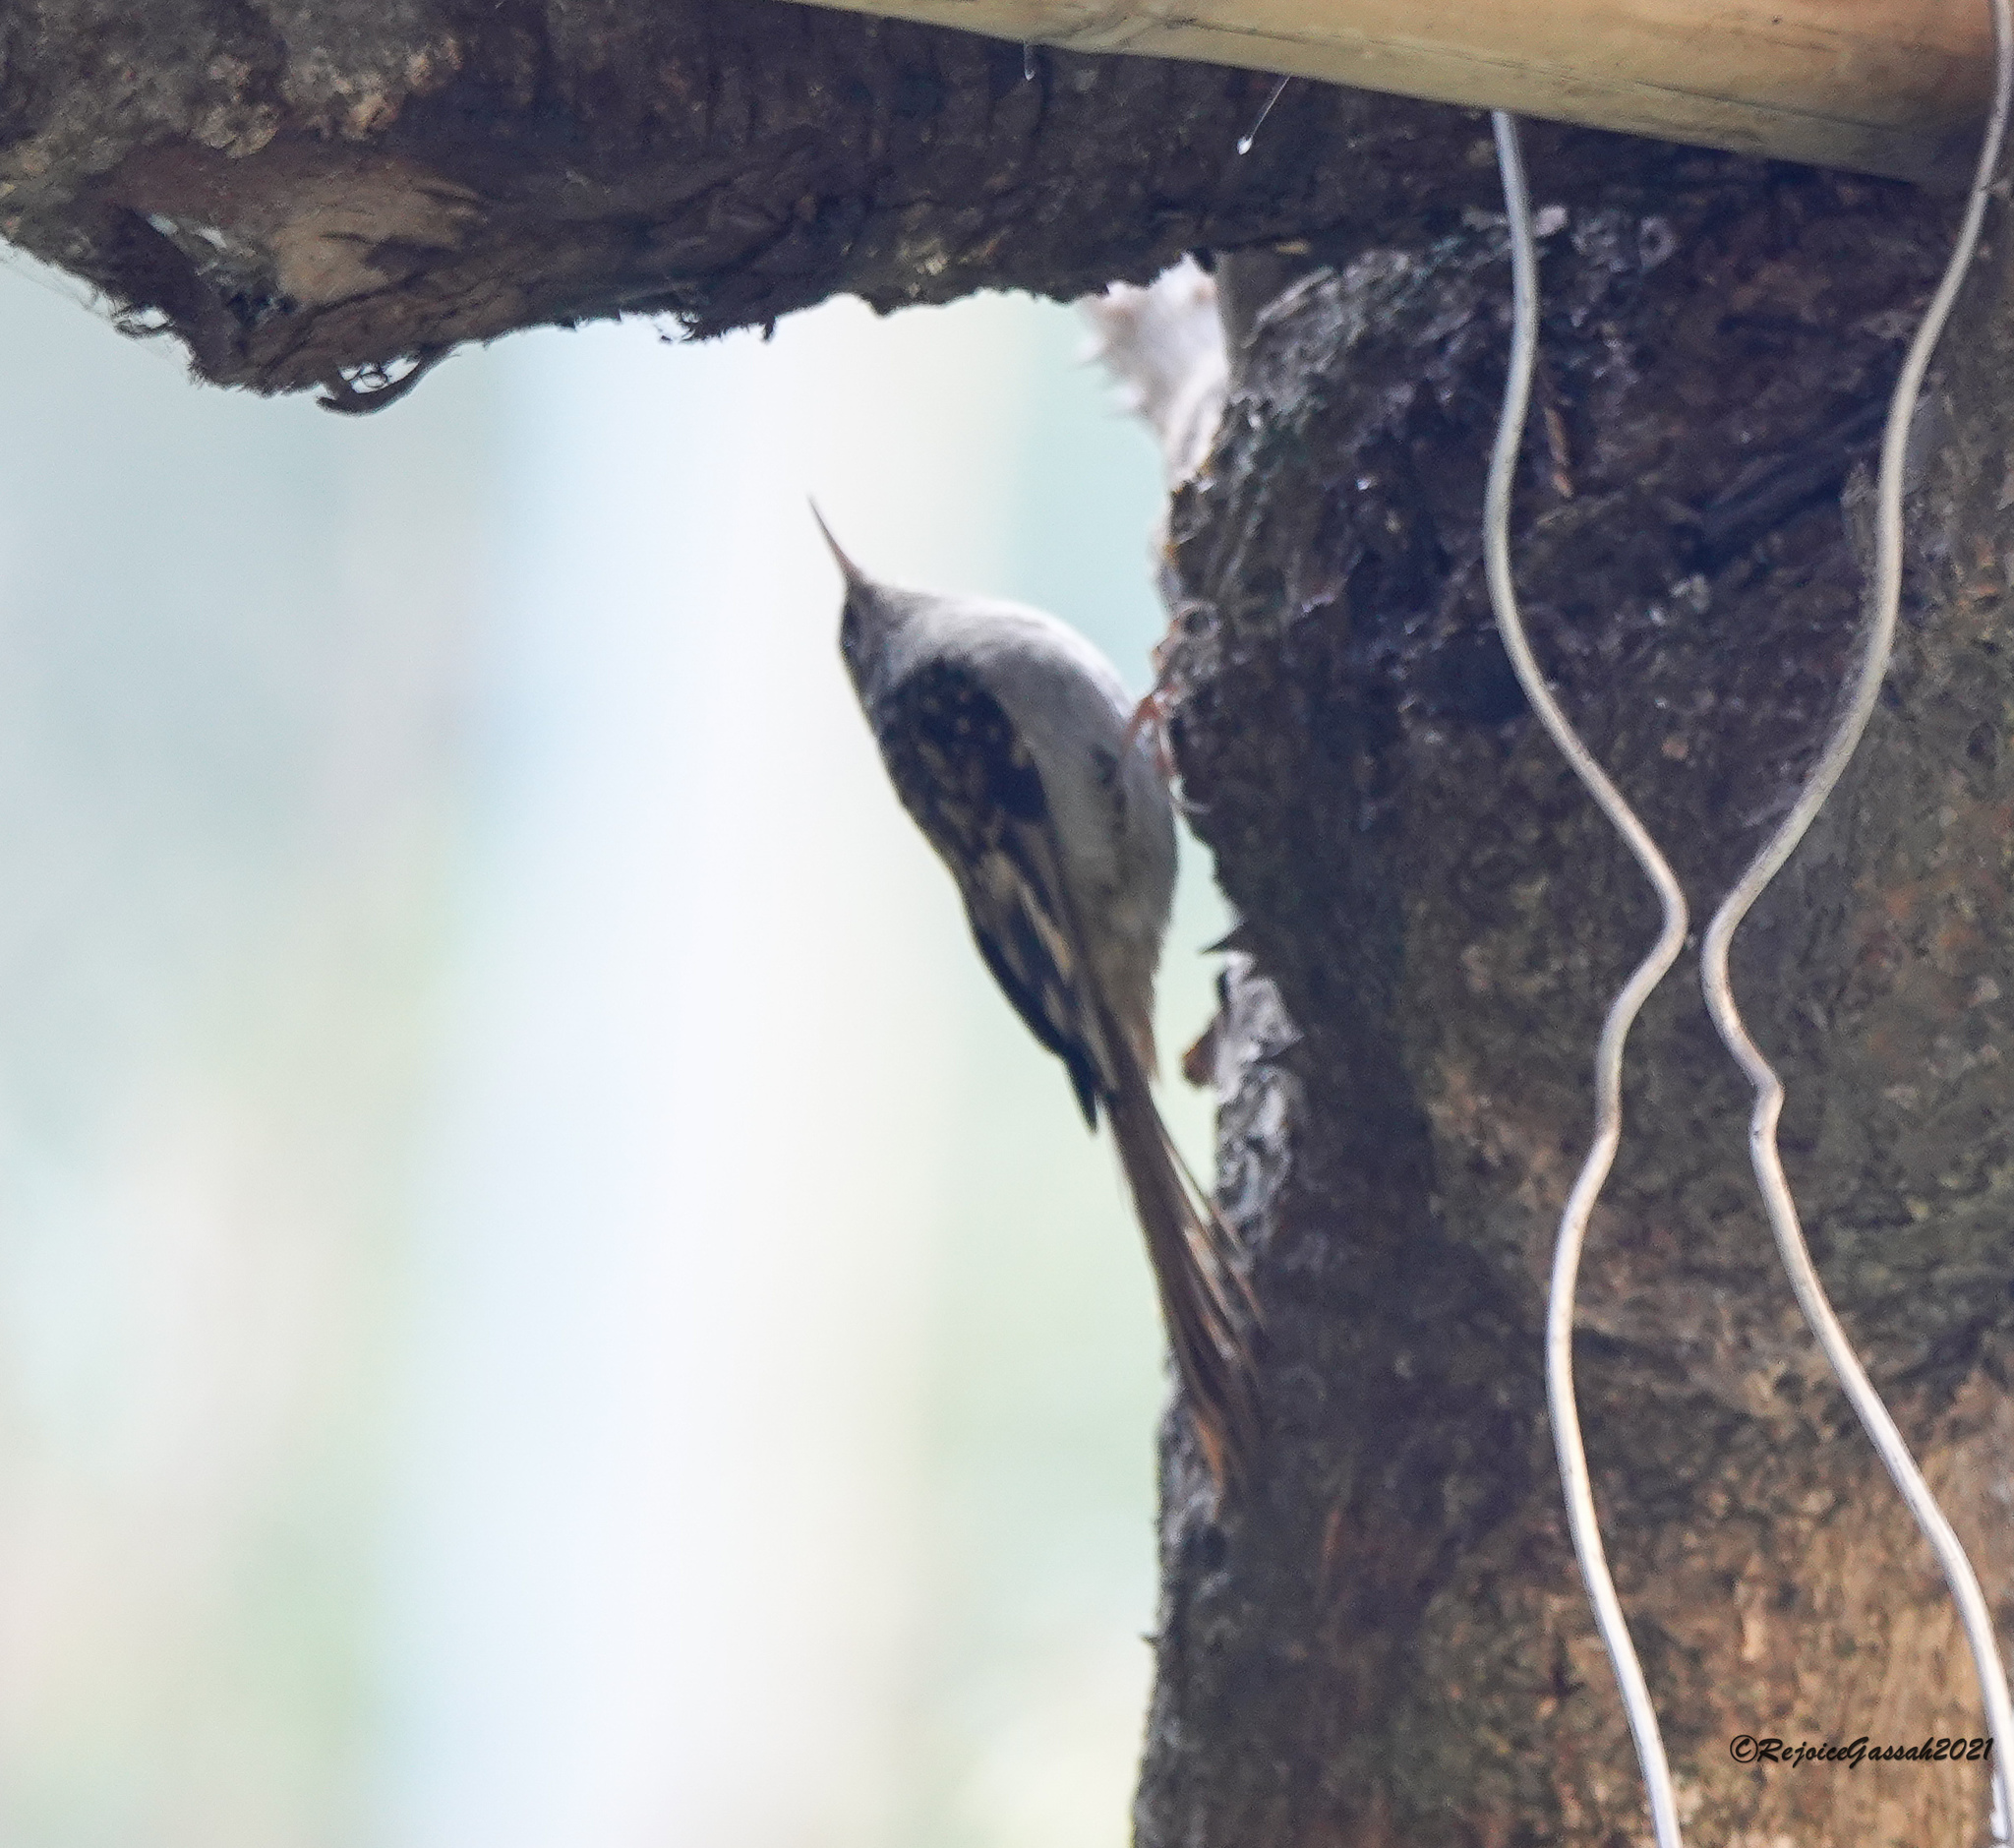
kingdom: Animalia
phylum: Chordata
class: Aves
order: Passeriformes
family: Certhiidae
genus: Certhia
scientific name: Certhia hodgsoni
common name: Hodgson's treecreeper
